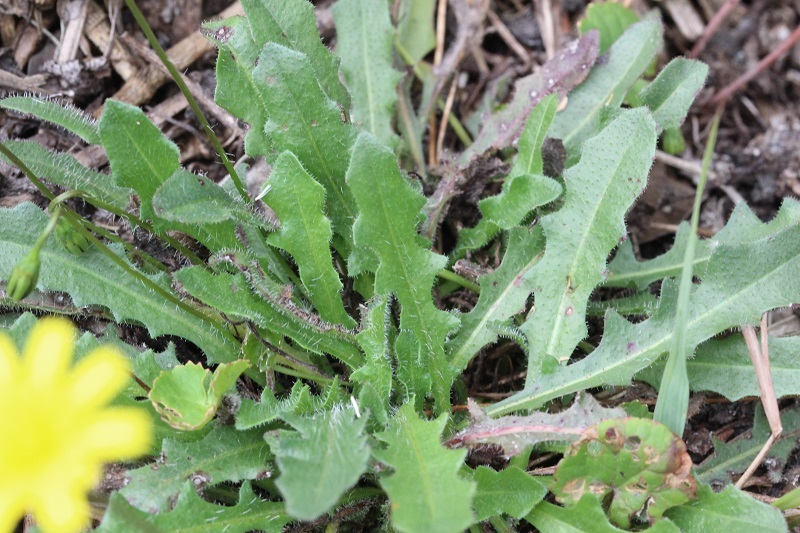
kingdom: Plantae
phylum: Tracheophyta
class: Magnoliopsida
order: Asterales
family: Asteraceae
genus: Hypochaeris
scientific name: Hypochaeris radicata
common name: Flatweed
